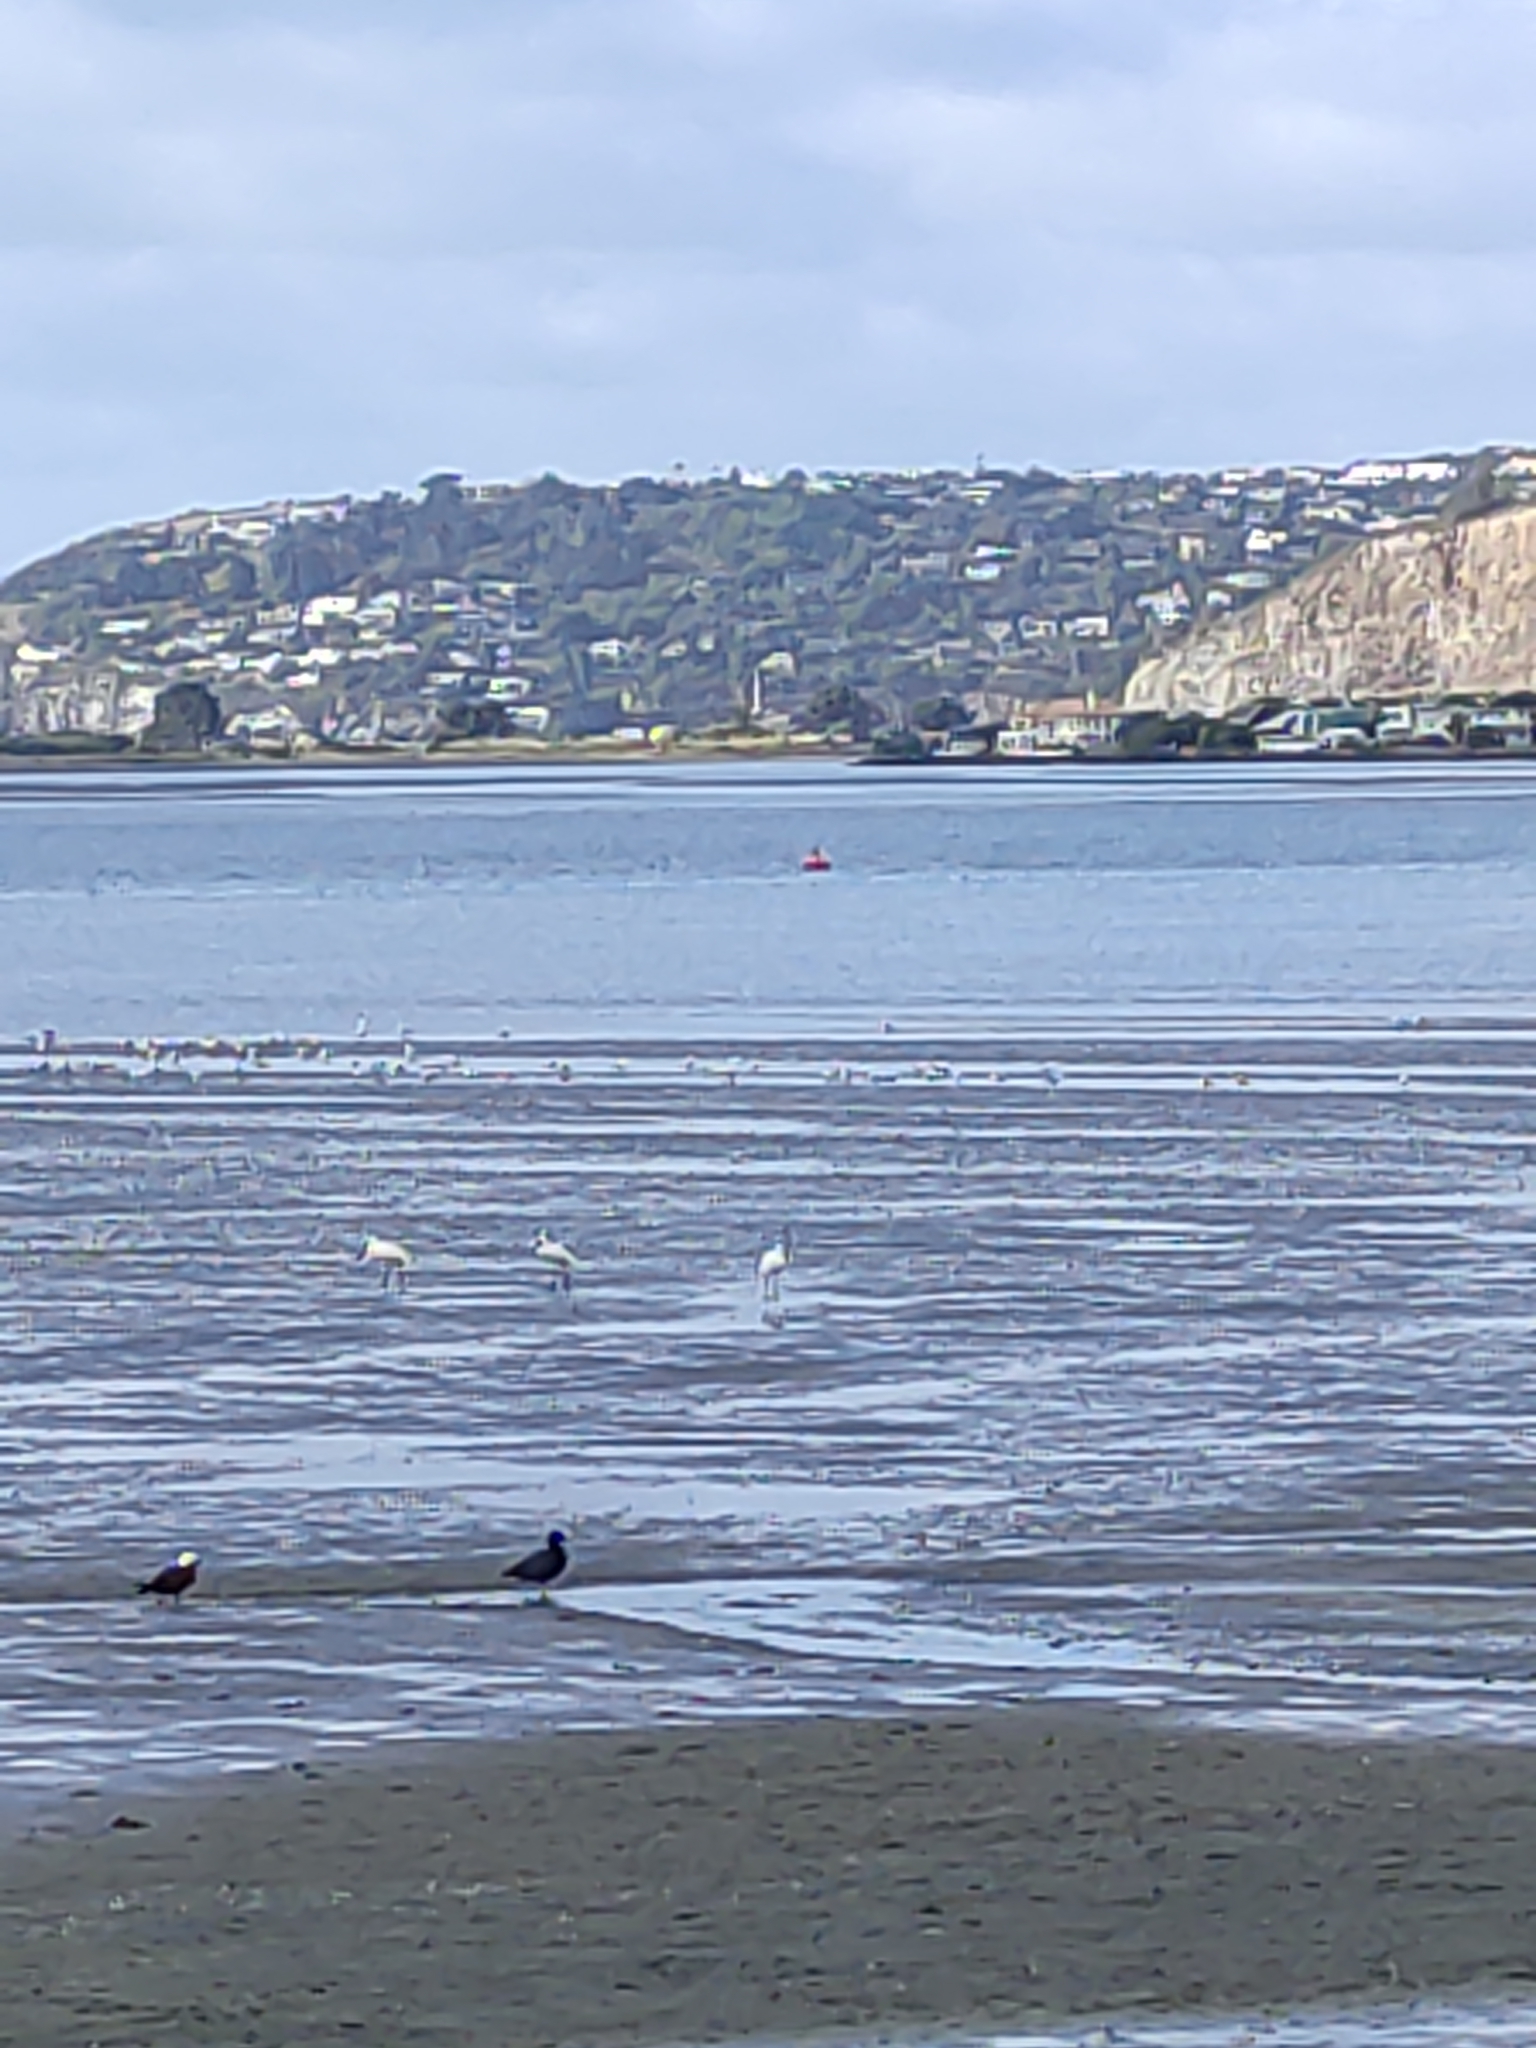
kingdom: Animalia
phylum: Chordata
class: Aves
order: Pelecaniformes
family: Threskiornithidae
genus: Platalea
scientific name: Platalea regia
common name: Royal spoonbill
